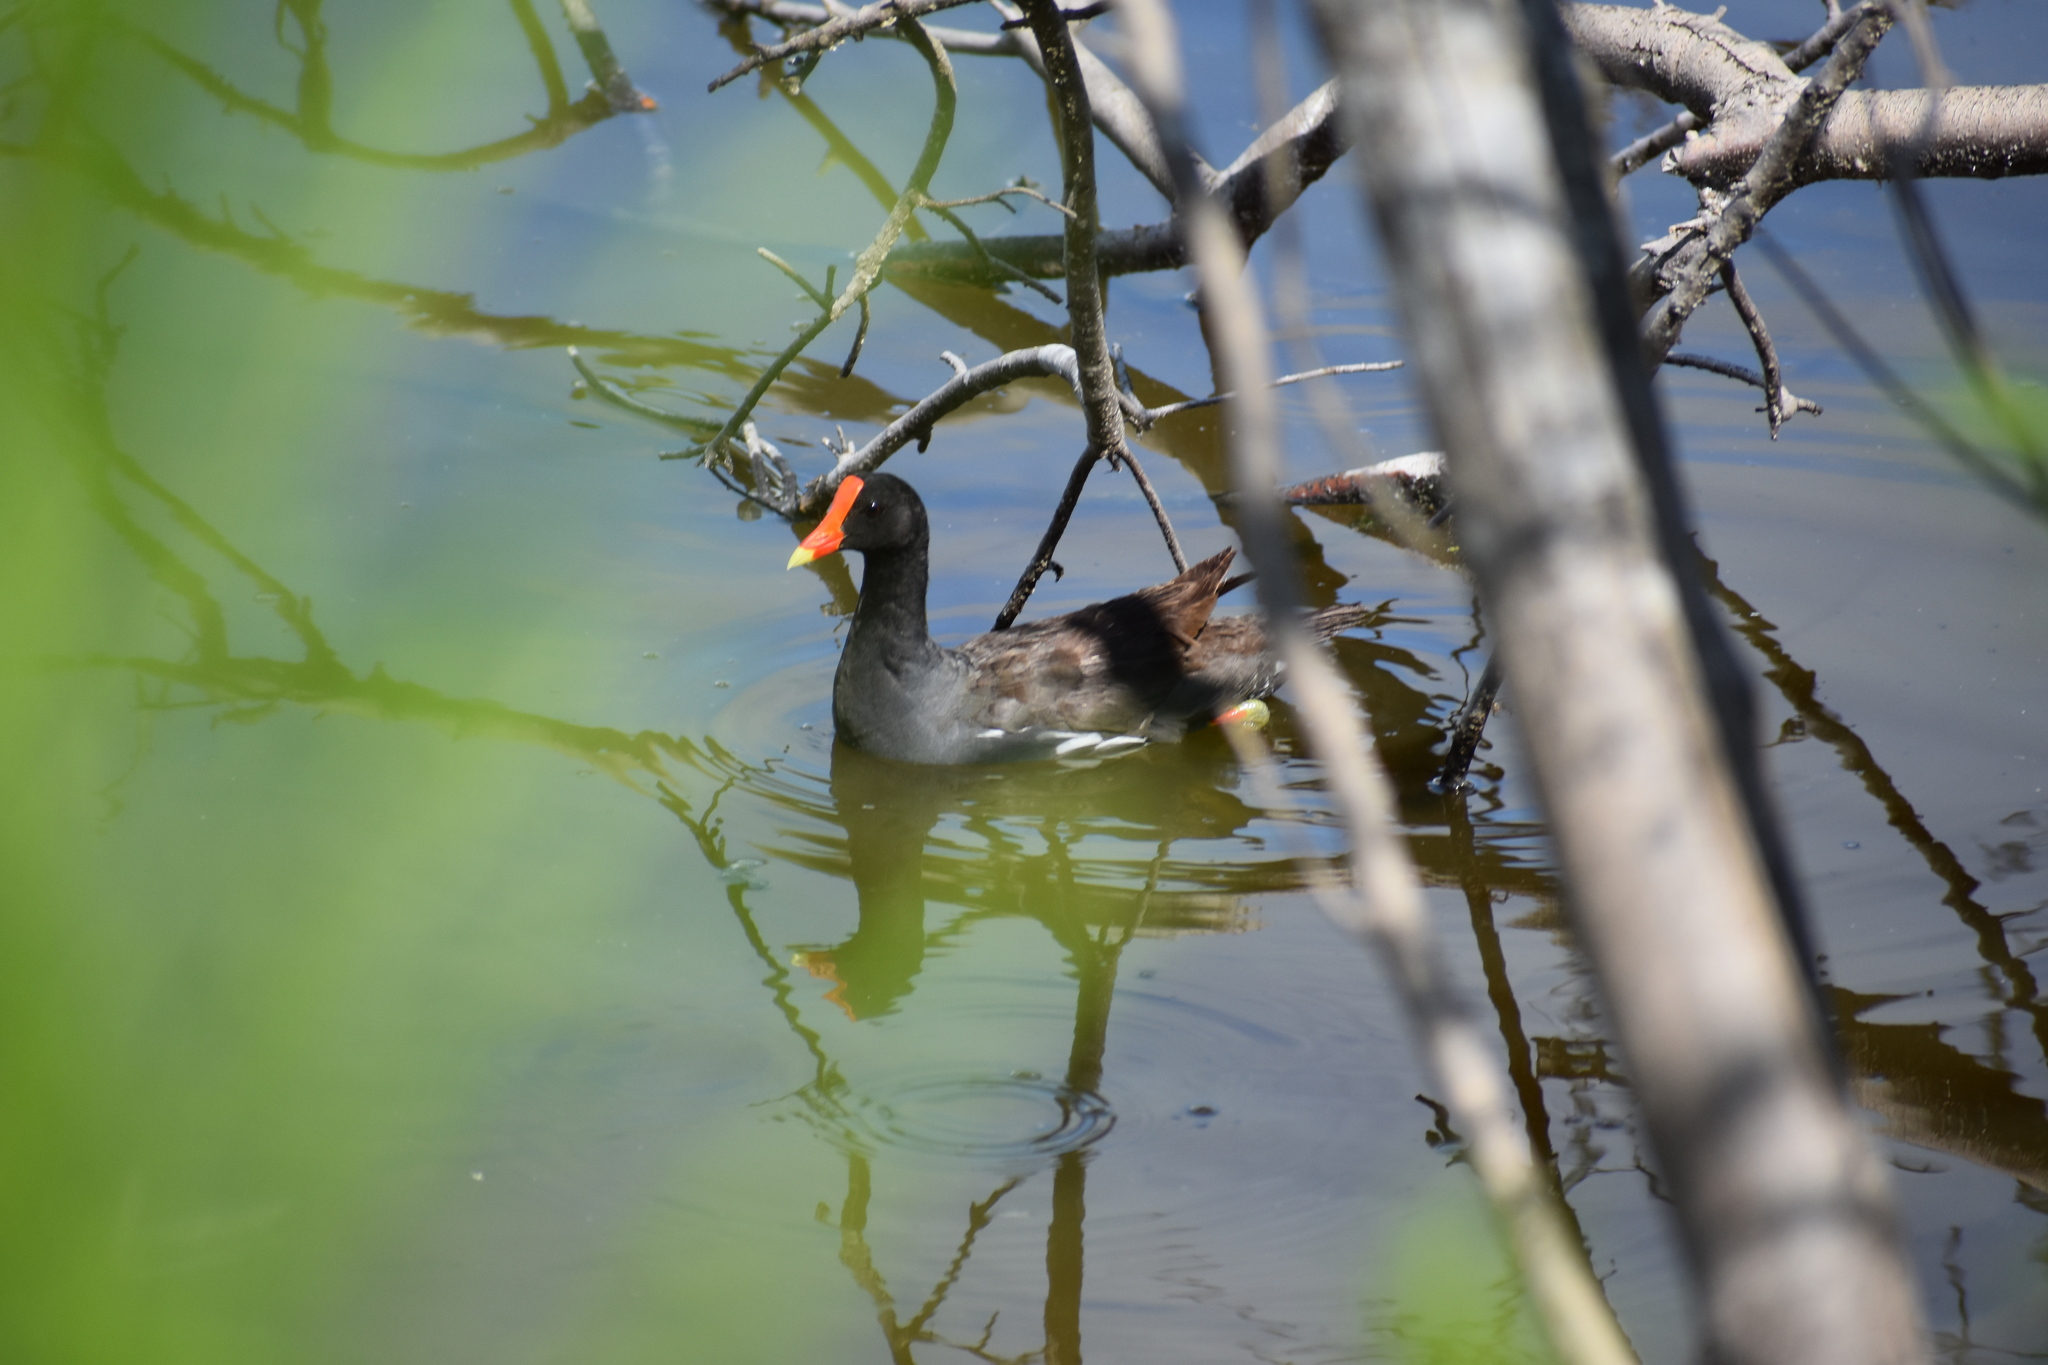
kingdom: Animalia
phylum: Chordata
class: Aves
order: Gruiformes
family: Rallidae
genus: Gallinula
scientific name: Gallinula chloropus
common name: Common moorhen
